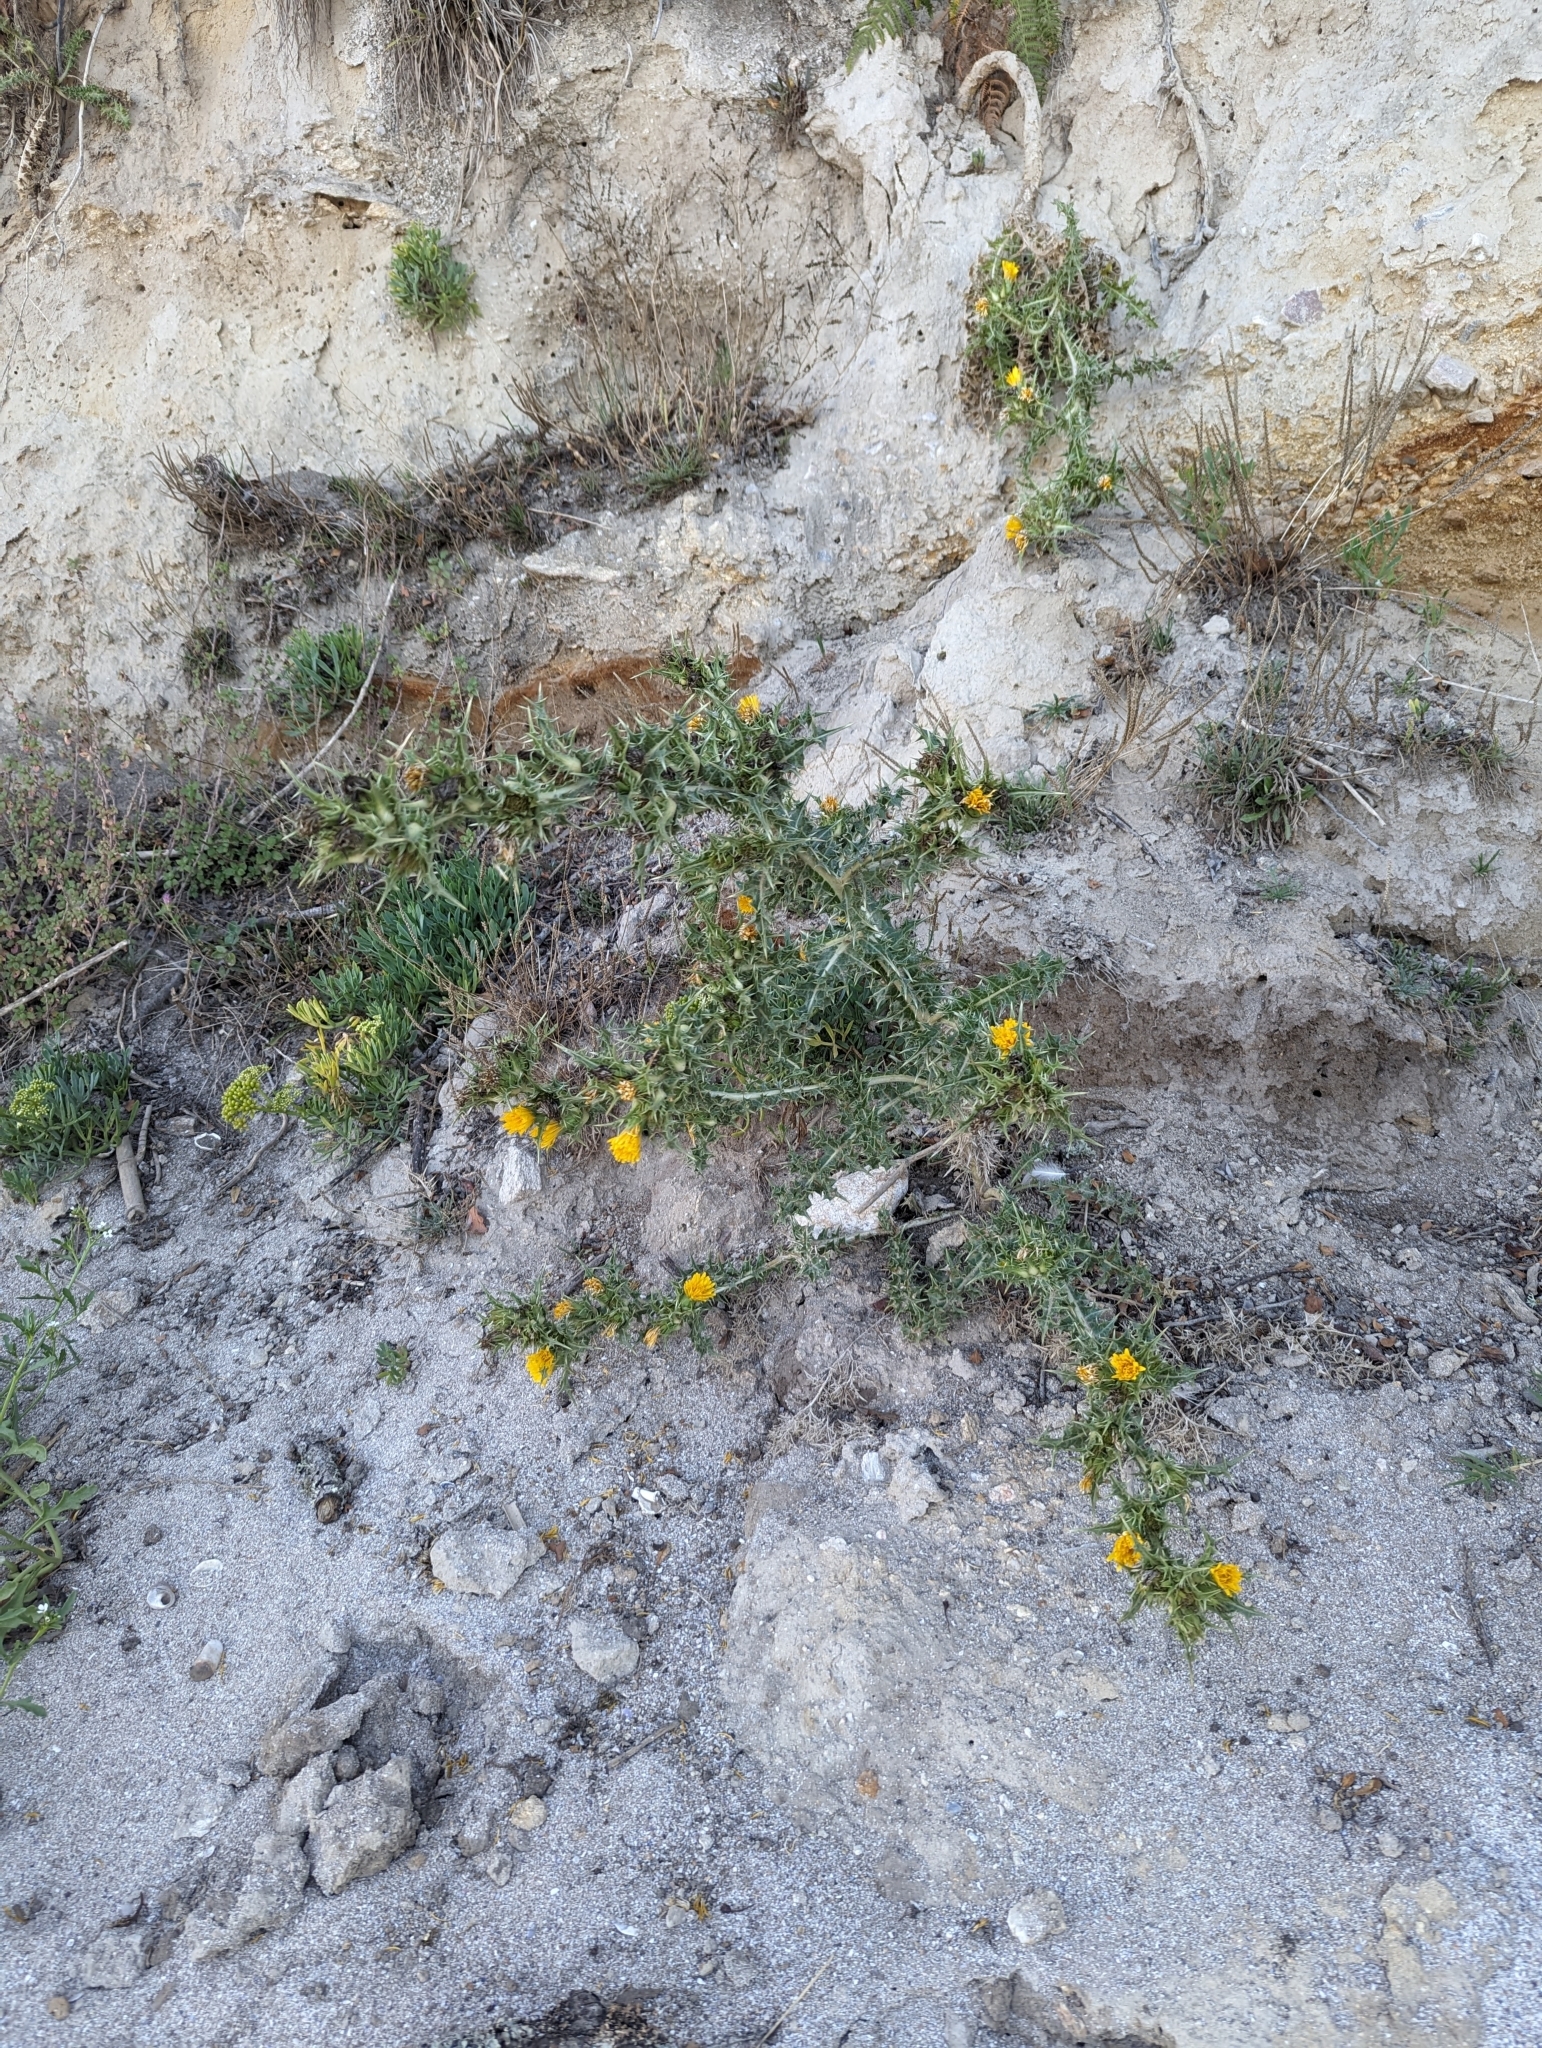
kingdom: Plantae
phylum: Tracheophyta
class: Magnoliopsida
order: Asterales
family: Asteraceae
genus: Scolymus
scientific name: Scolymus hispanicus
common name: Golden thistle
